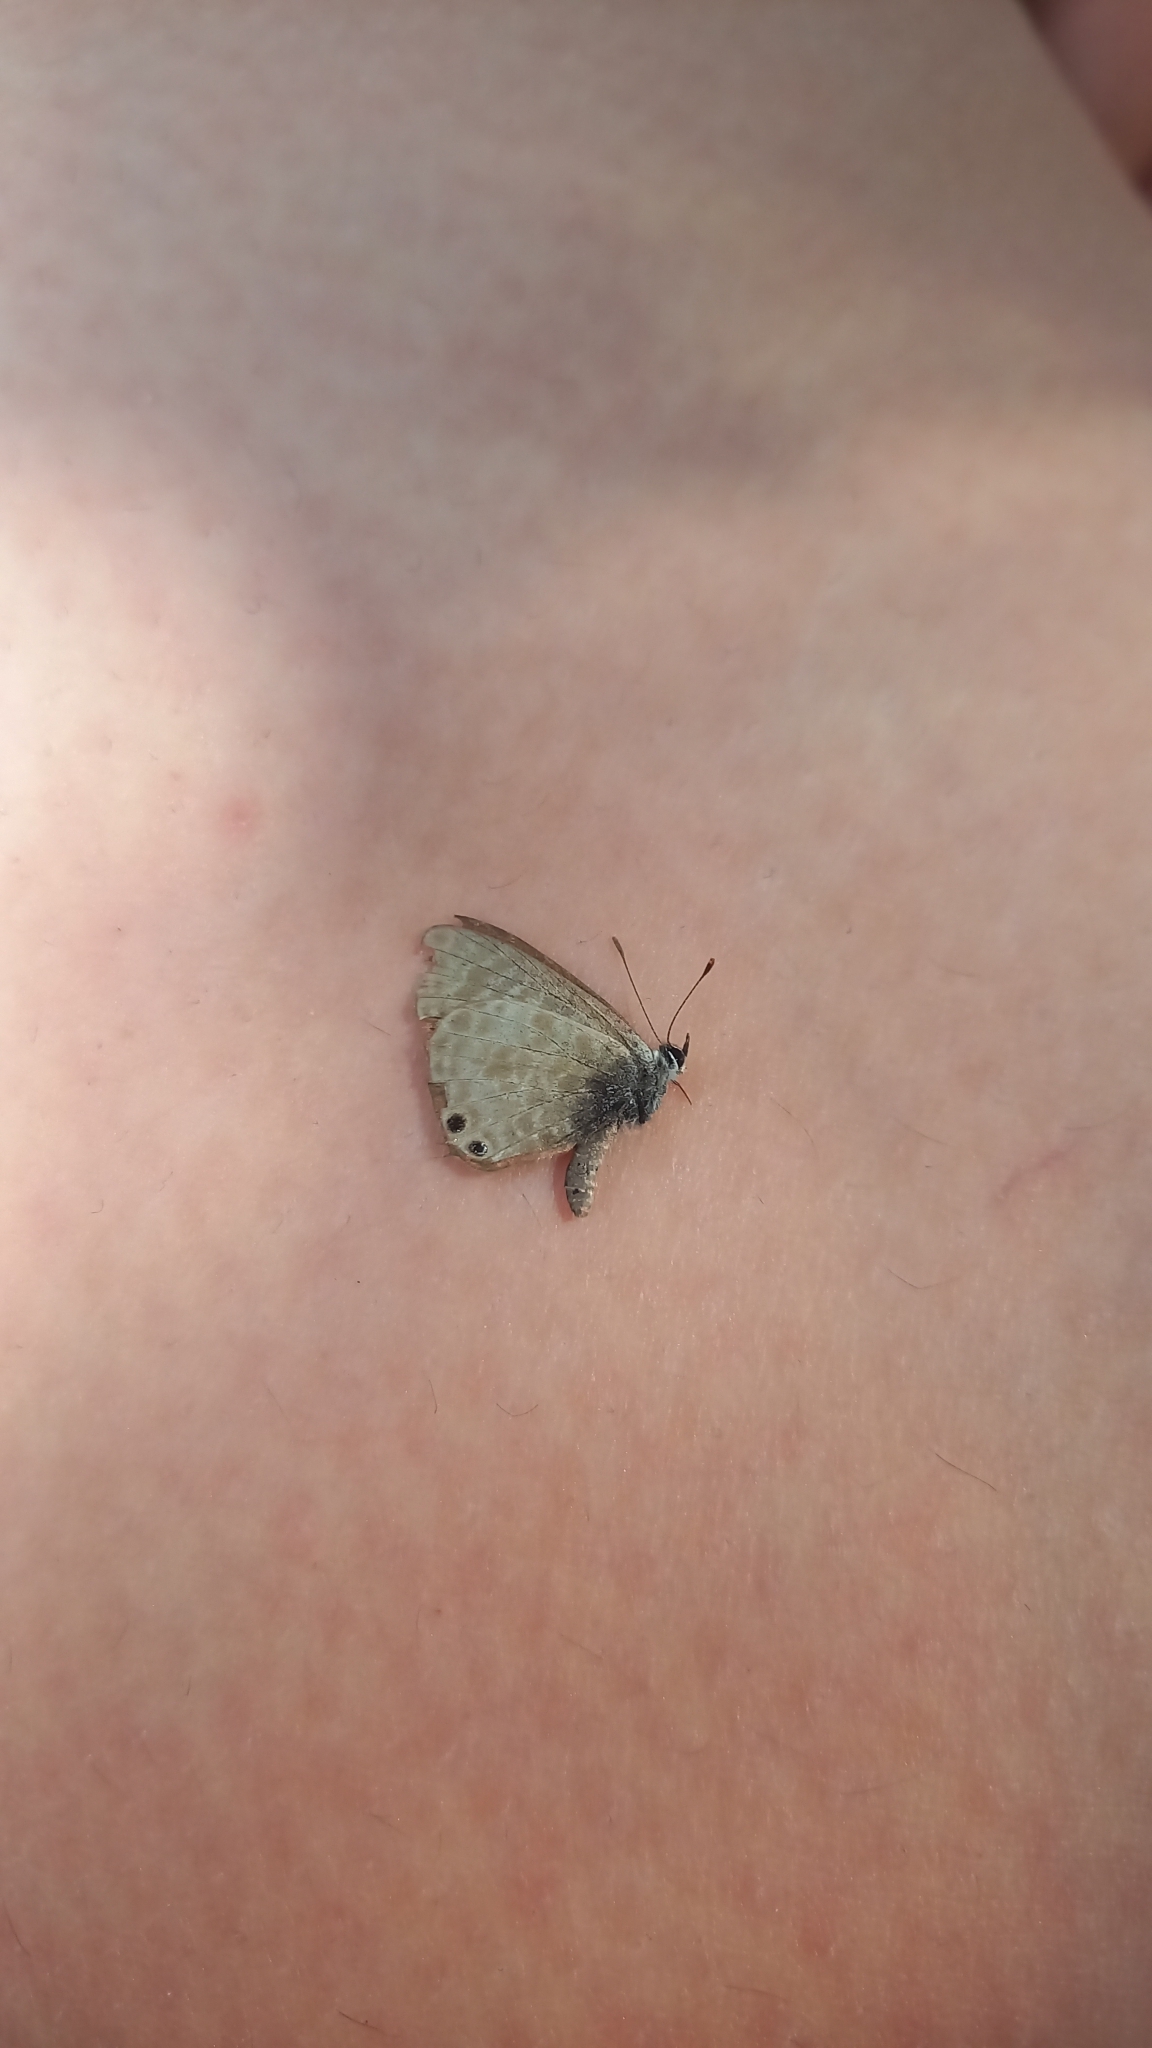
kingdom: Animalia
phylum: Arthropoda
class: Insecta
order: Lepidoptera
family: Lycaenidae
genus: Leptotes
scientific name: Leptotes pirithous
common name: Lang's short-tailed blue
